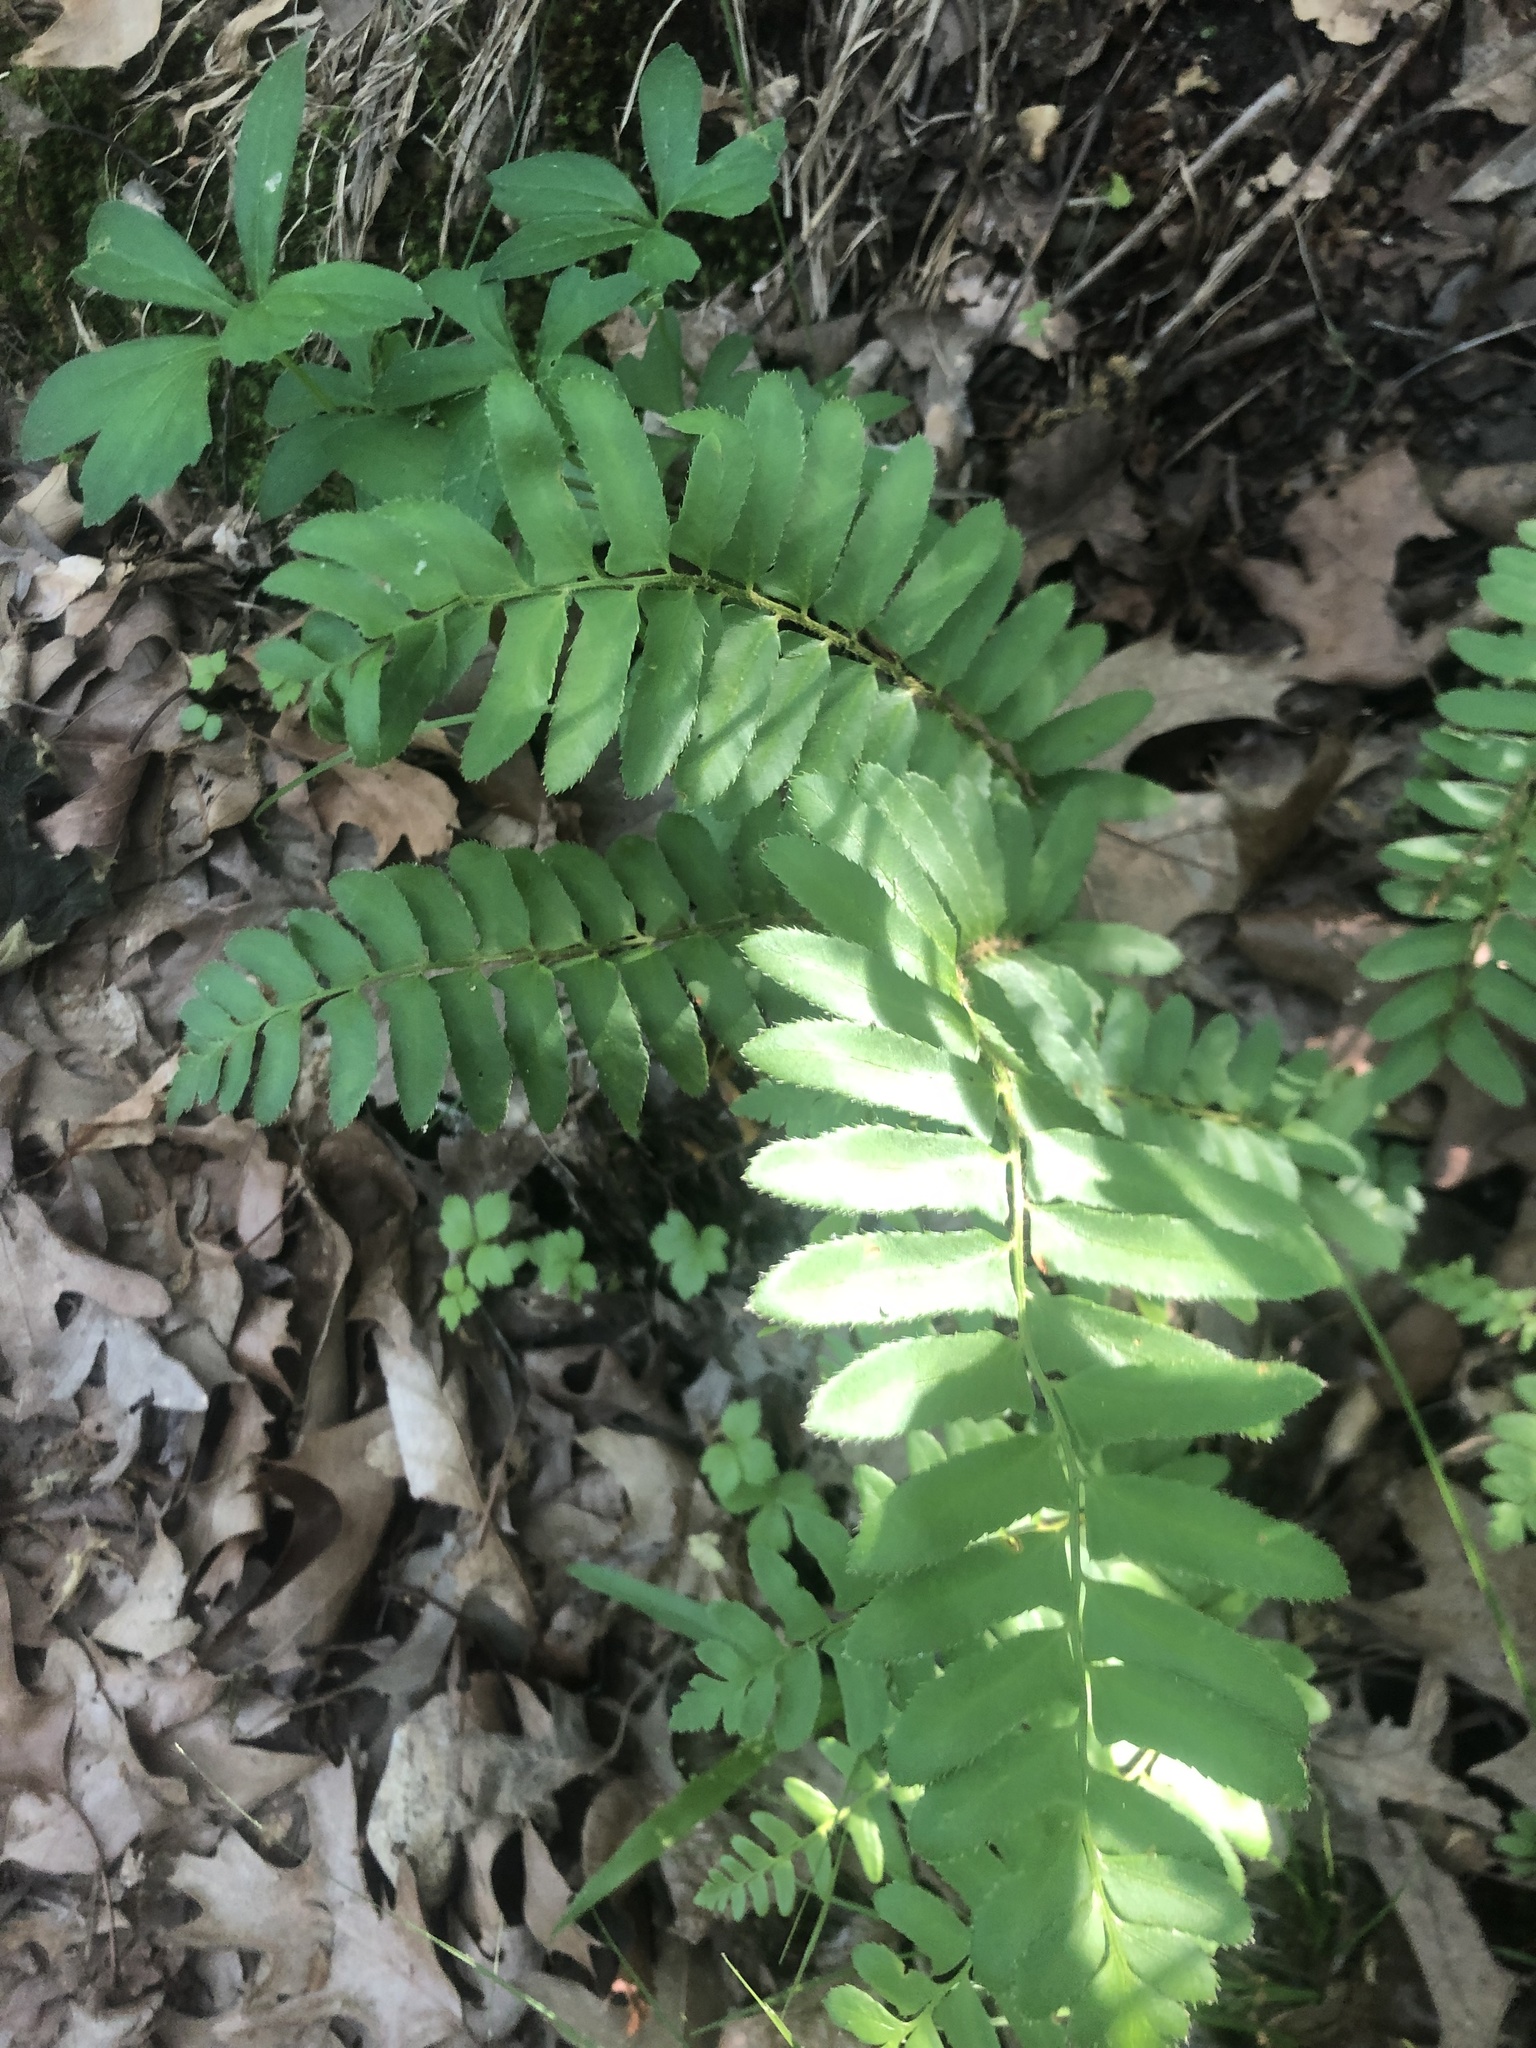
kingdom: Plantae
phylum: Tracheophyta
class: Polypodiopsida
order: Polypodiales
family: Dryopteridaceae
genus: Polystichum
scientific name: Polystichum acrostichoides
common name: Christmas fern
